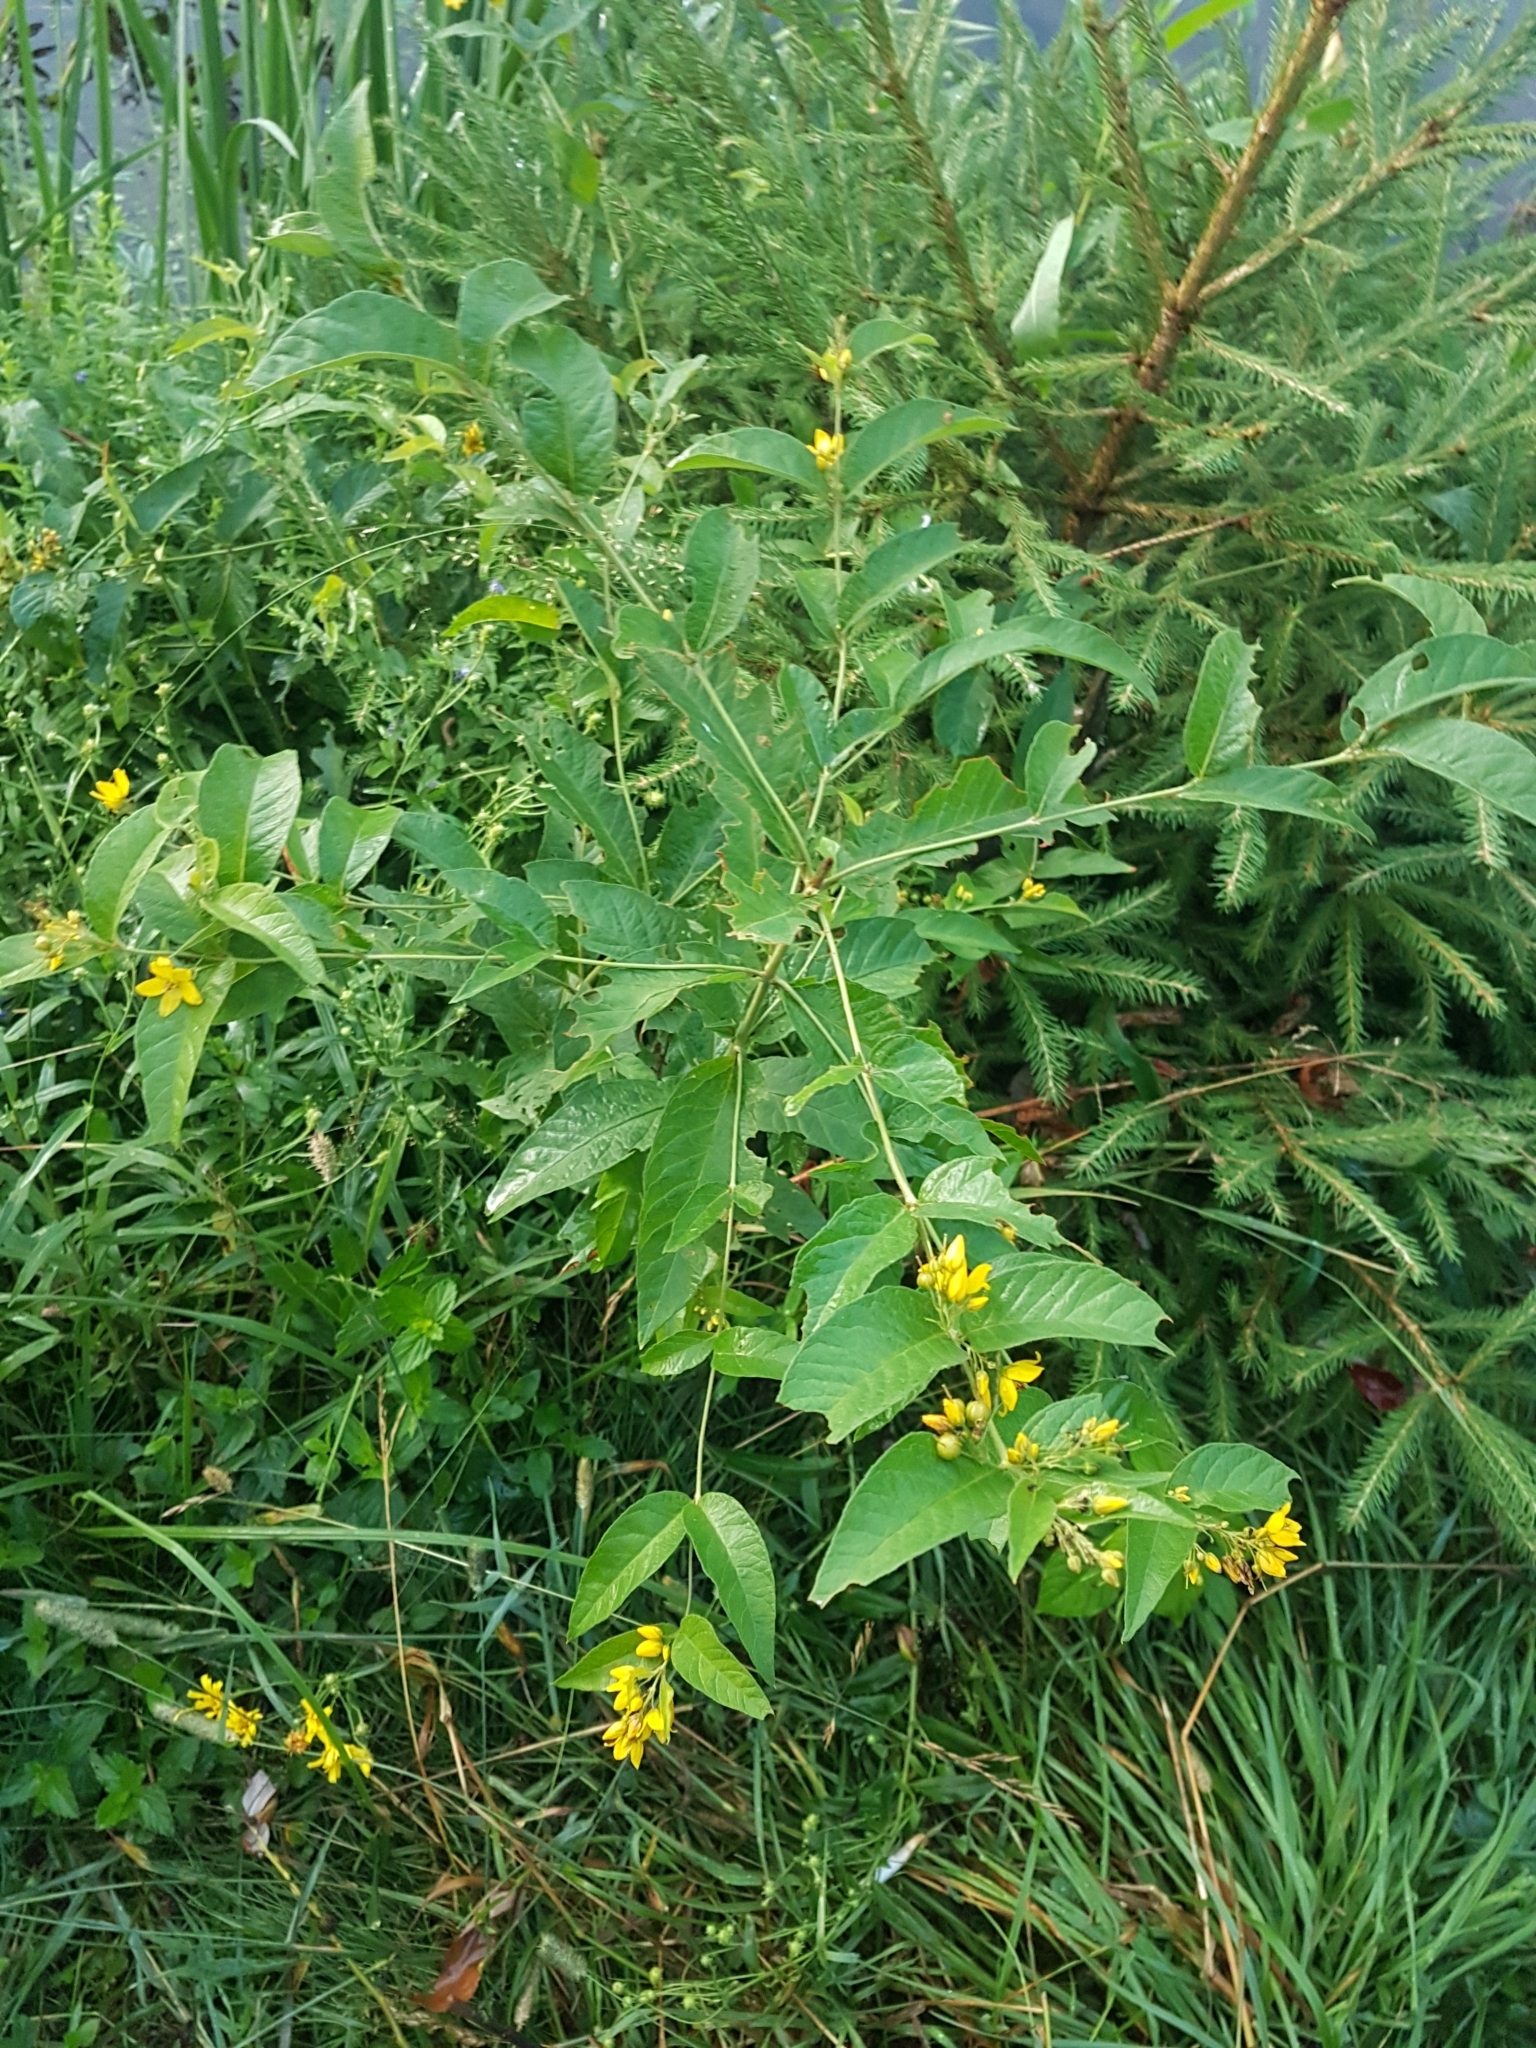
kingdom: Plantae
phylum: Tracheophyta
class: Magnoliopsida
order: Ericales
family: Primulaceae
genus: Lysimachia
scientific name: Lysimachia vulgaris
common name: Yellow loosestrife
